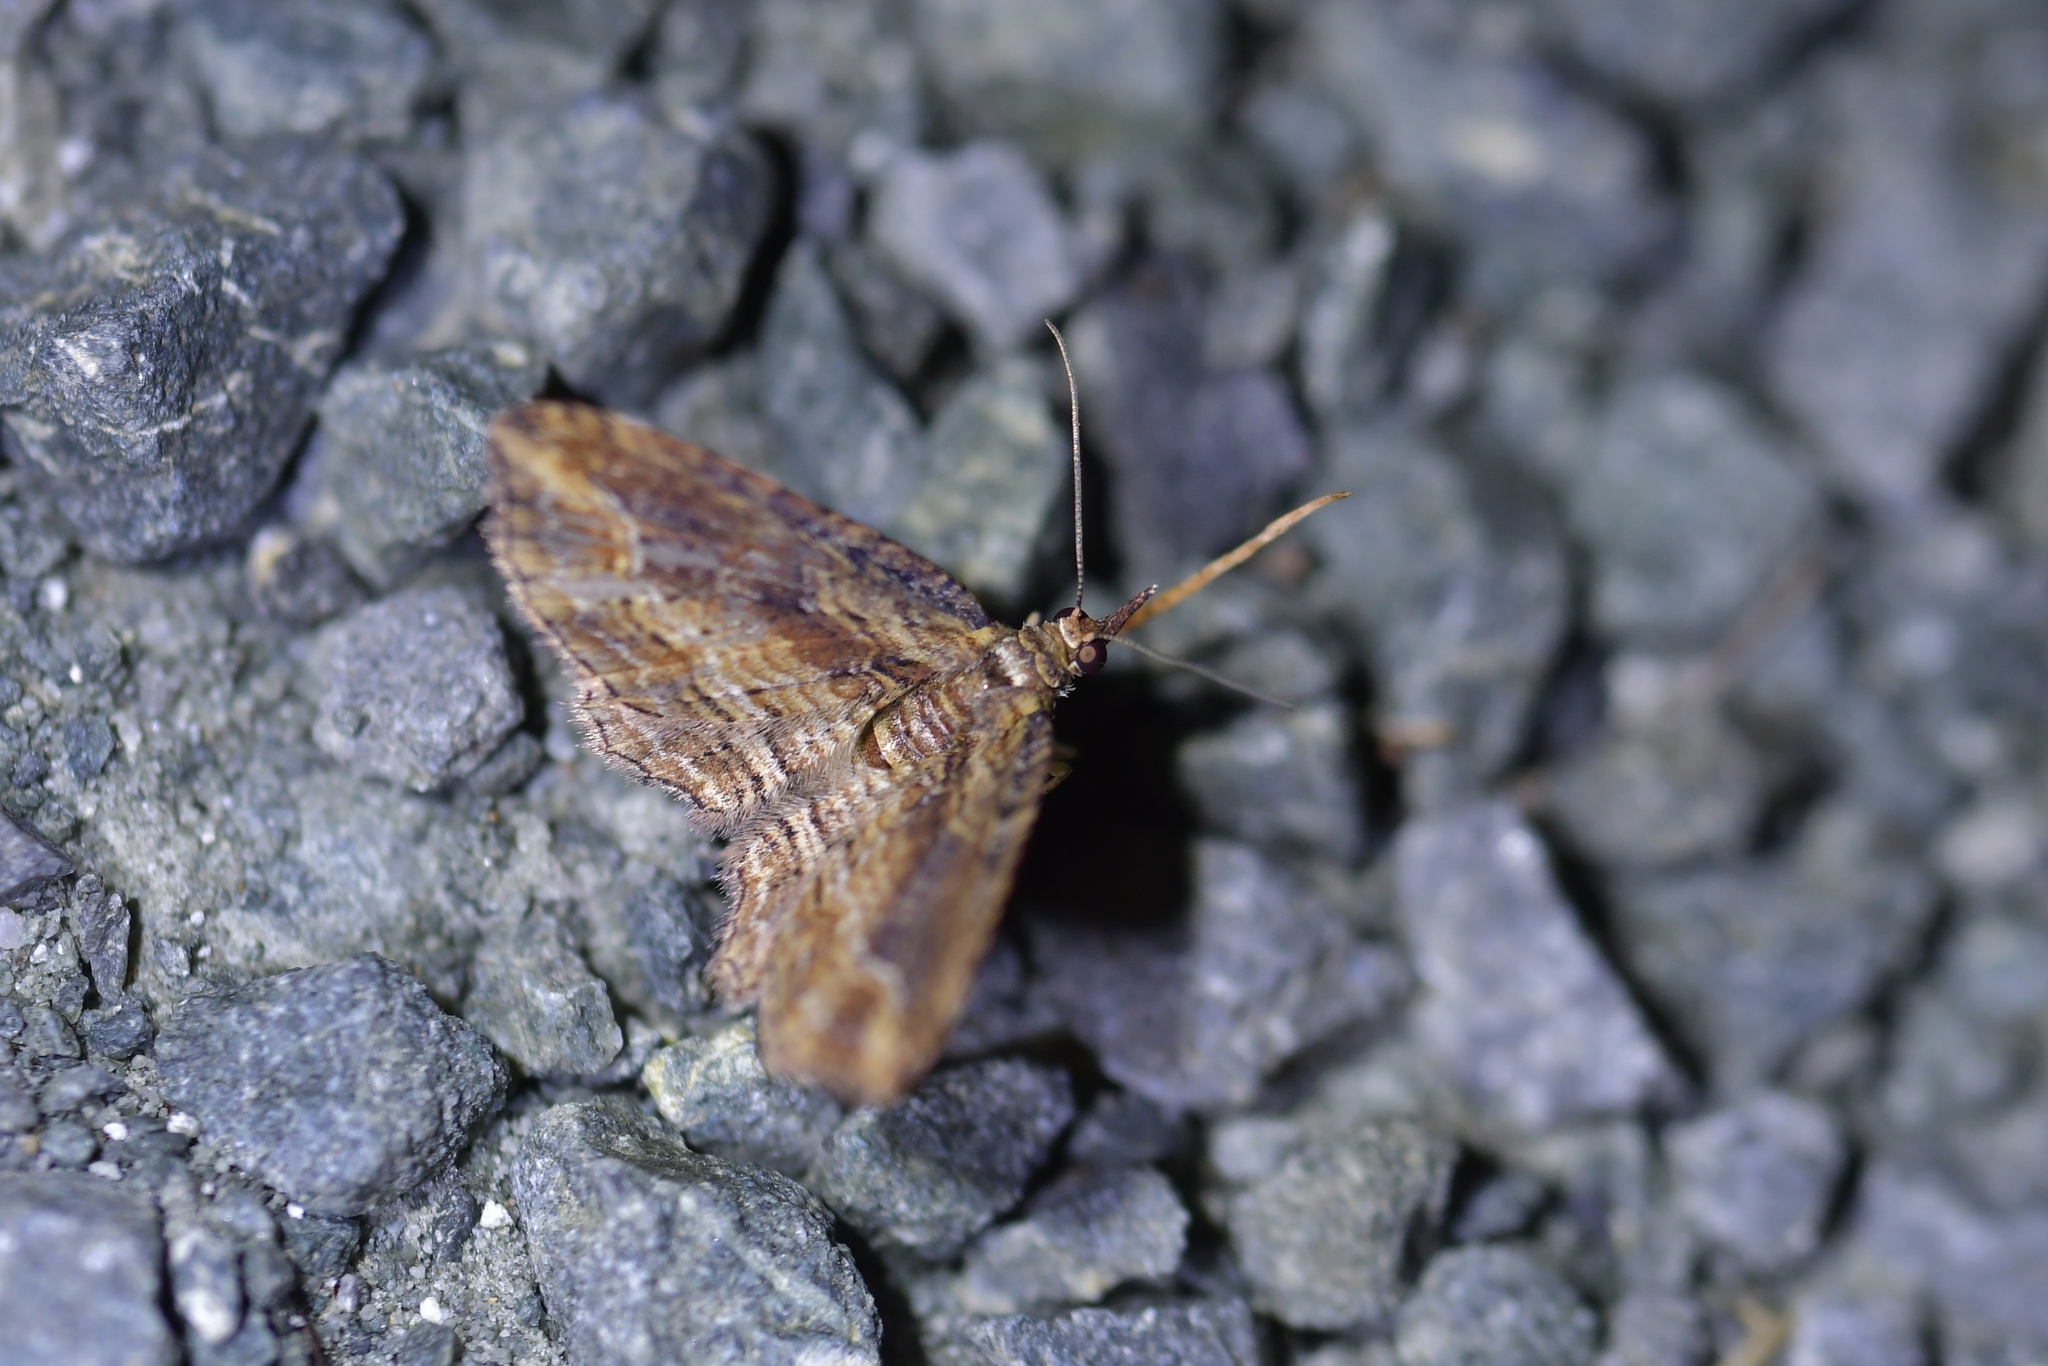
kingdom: Animalia
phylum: Arthropoda
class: Insecta
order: Lepidoptera
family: Geometridae
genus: Chloroclystis
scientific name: Chloroclystis filata
